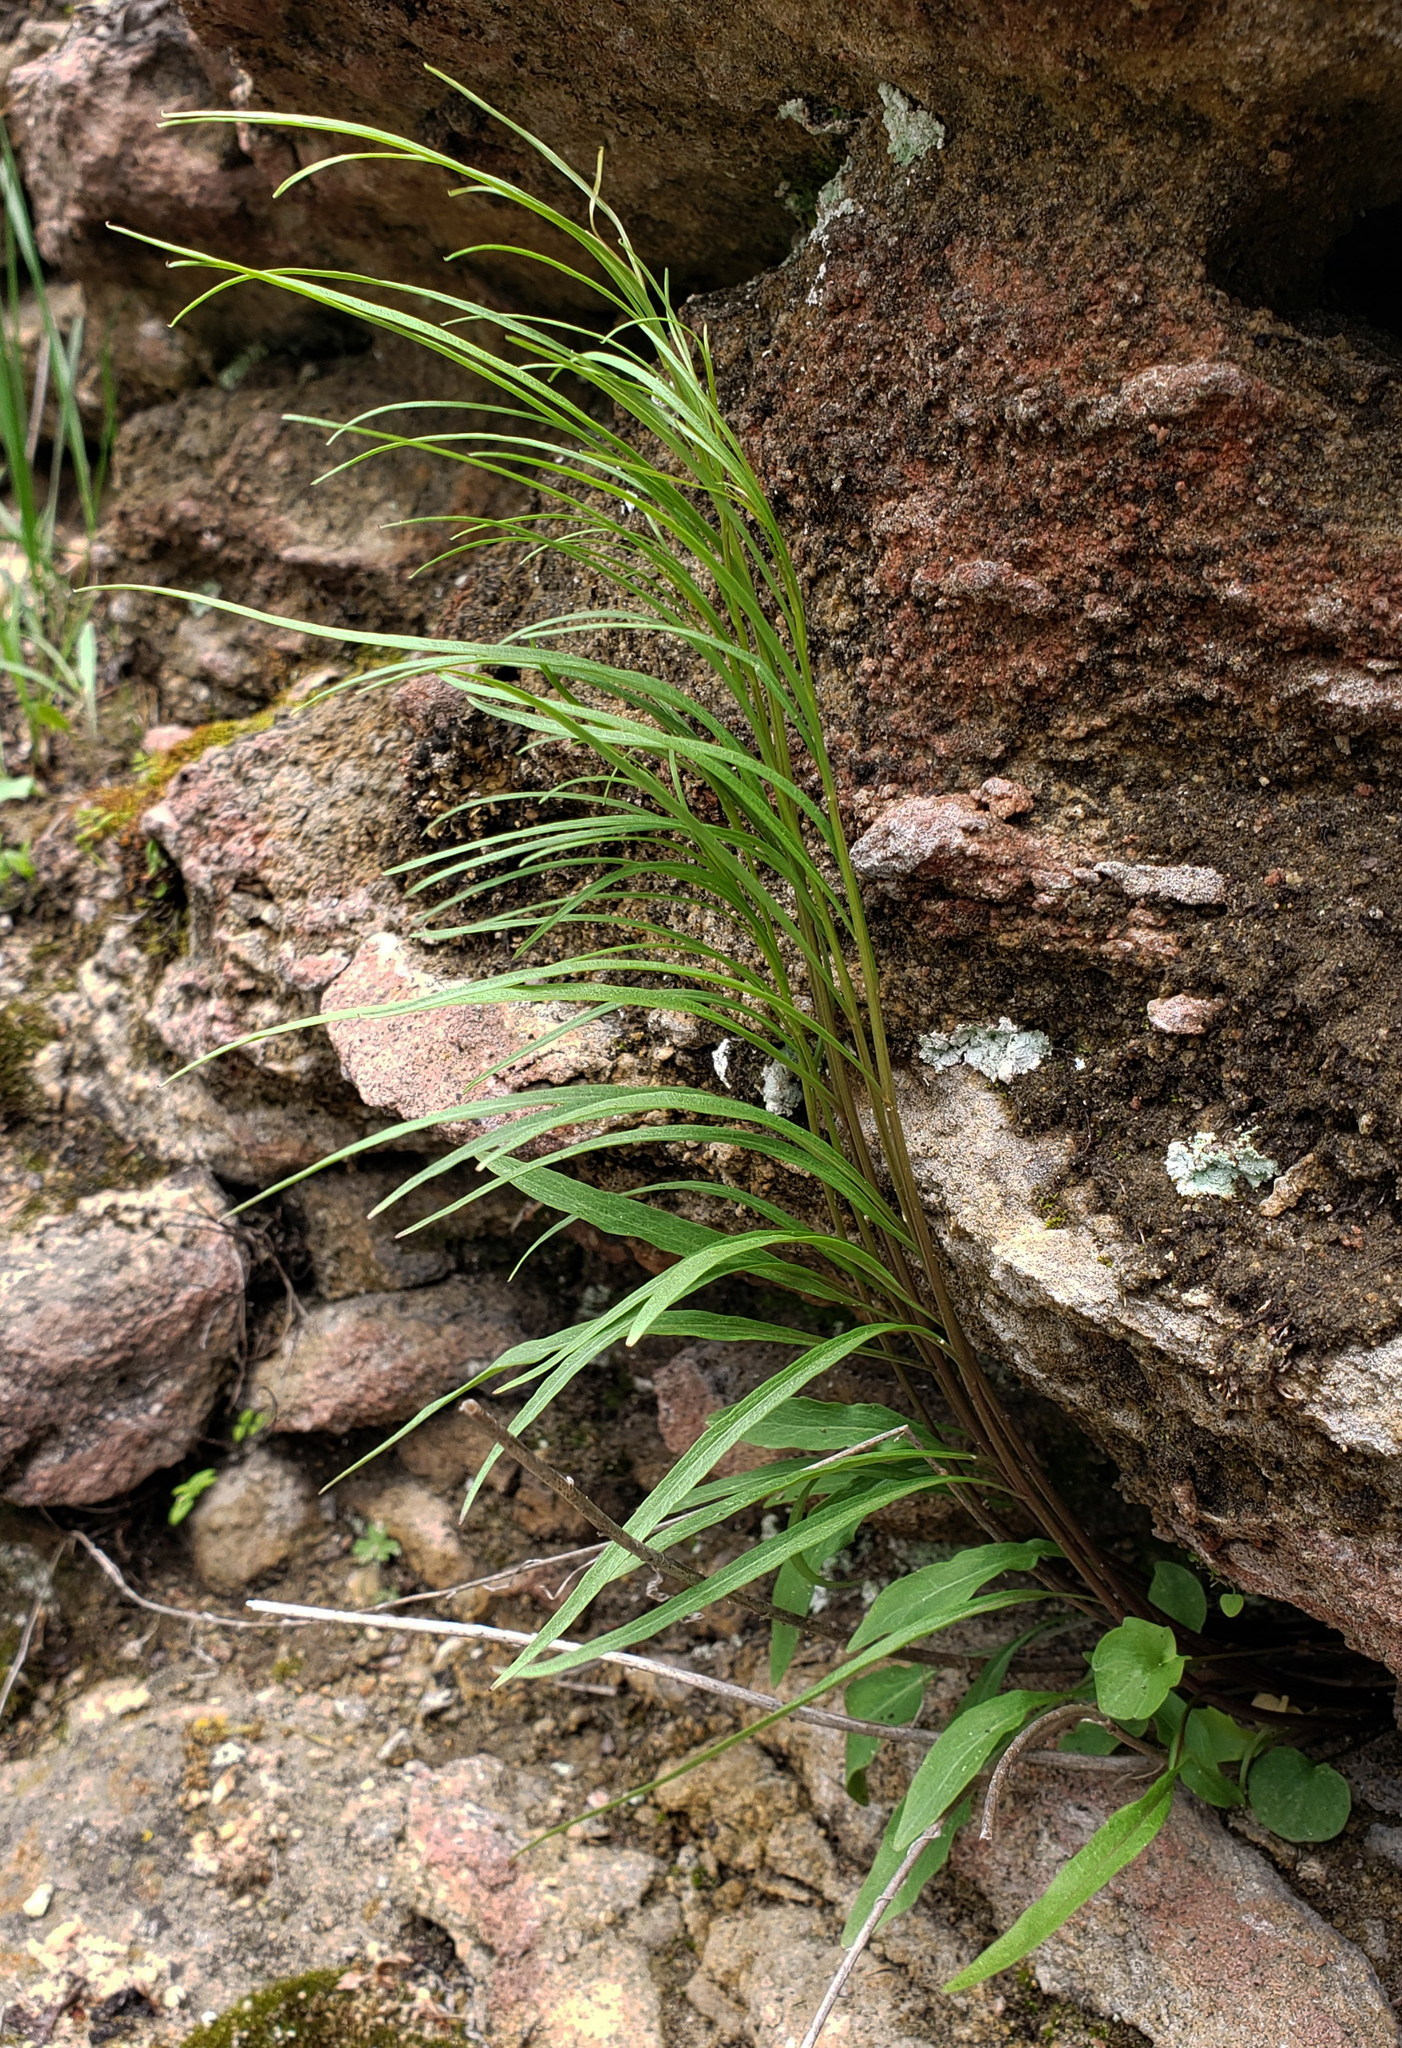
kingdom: Plantae
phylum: Tracheophyta
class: Magnoliopsida
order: Asterales
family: Campanulaceae
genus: Campanula
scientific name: Campanula intercedens
